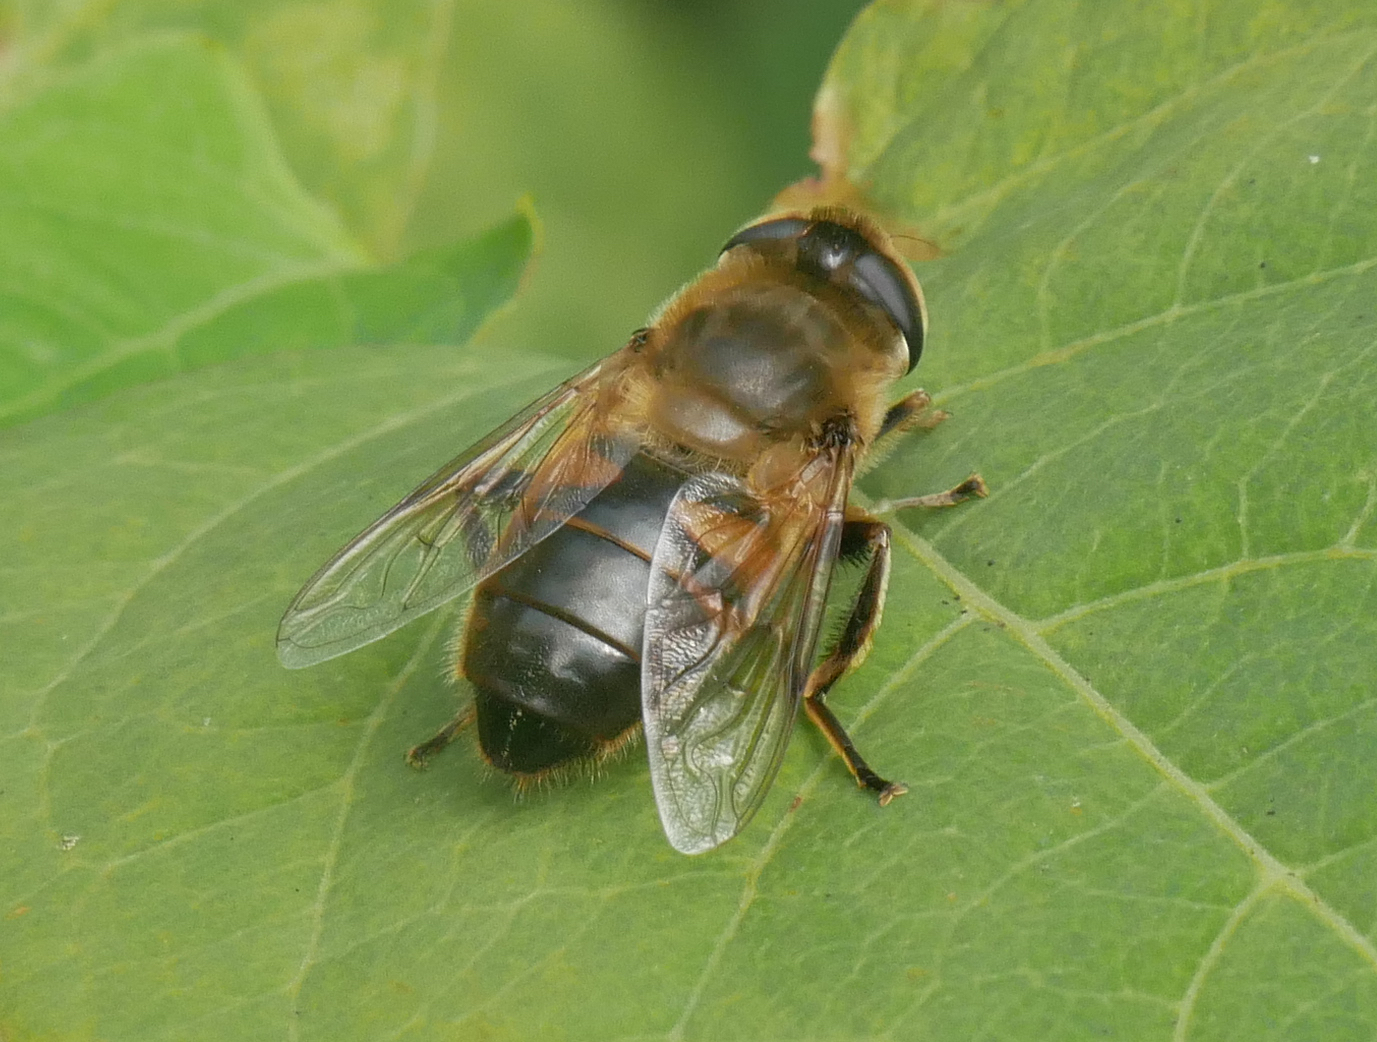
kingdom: Animalia
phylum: Arthropoda
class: Insecta
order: Diptera
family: Syrphidae
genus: Eristalis
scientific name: Eristalis tenax
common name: Drone fly
